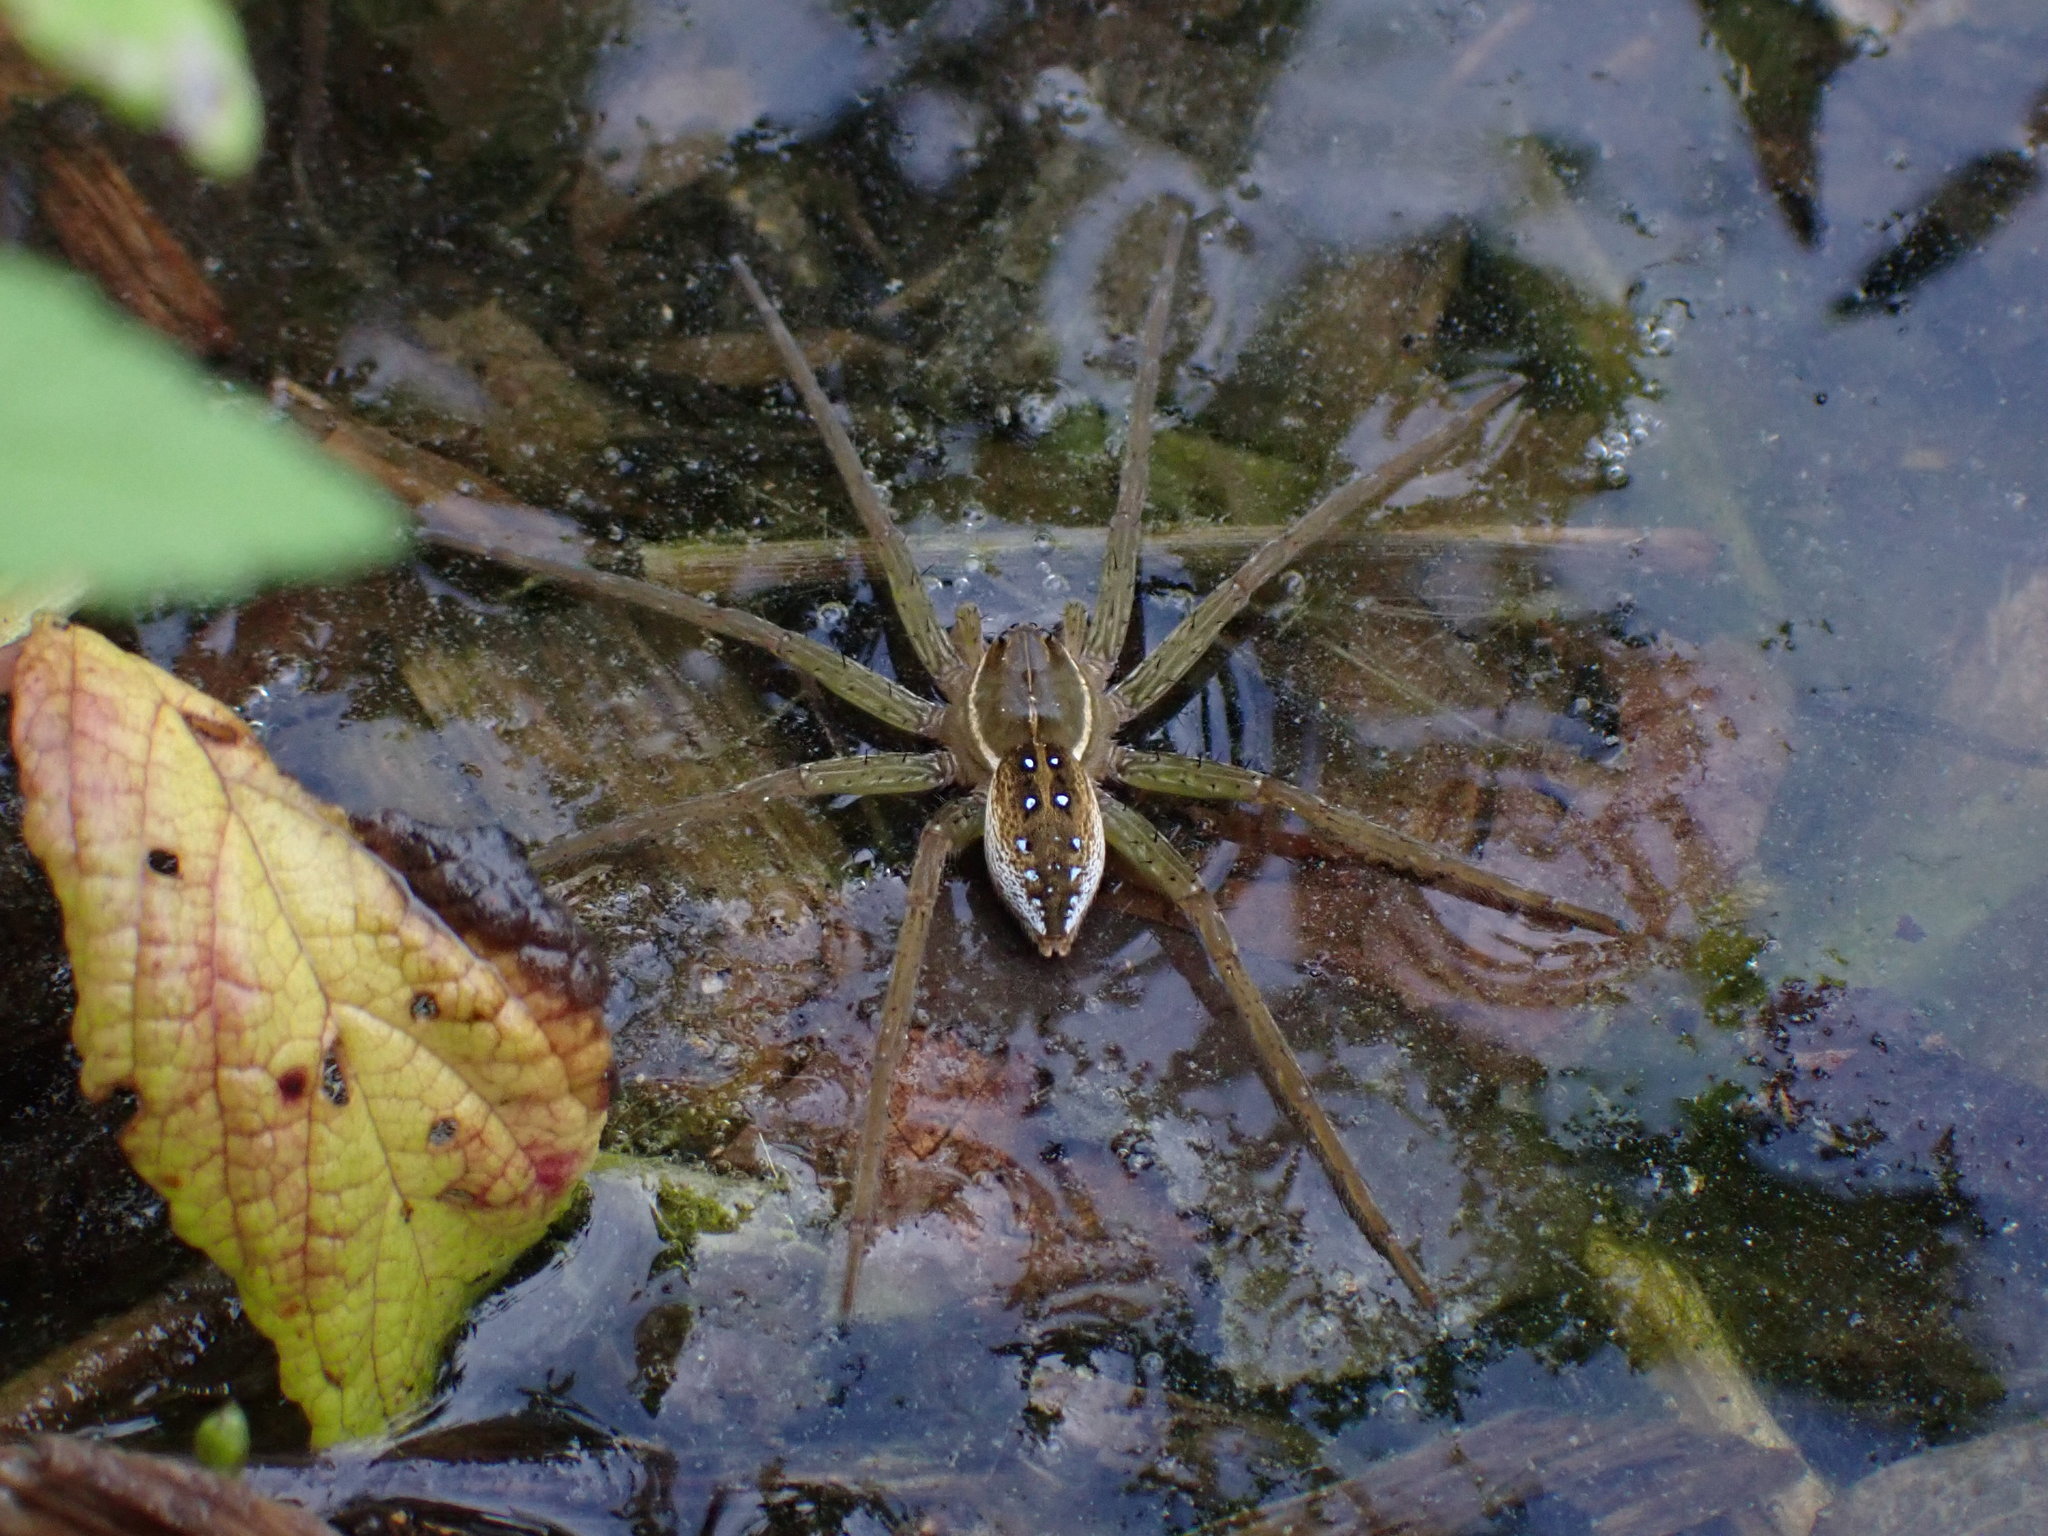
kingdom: Animalia
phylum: Arthropoda
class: Arachnida
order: Araneae
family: Pisauridae
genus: Dolomedes
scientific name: Dolomedes triton
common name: Six-spotted fishing spider
